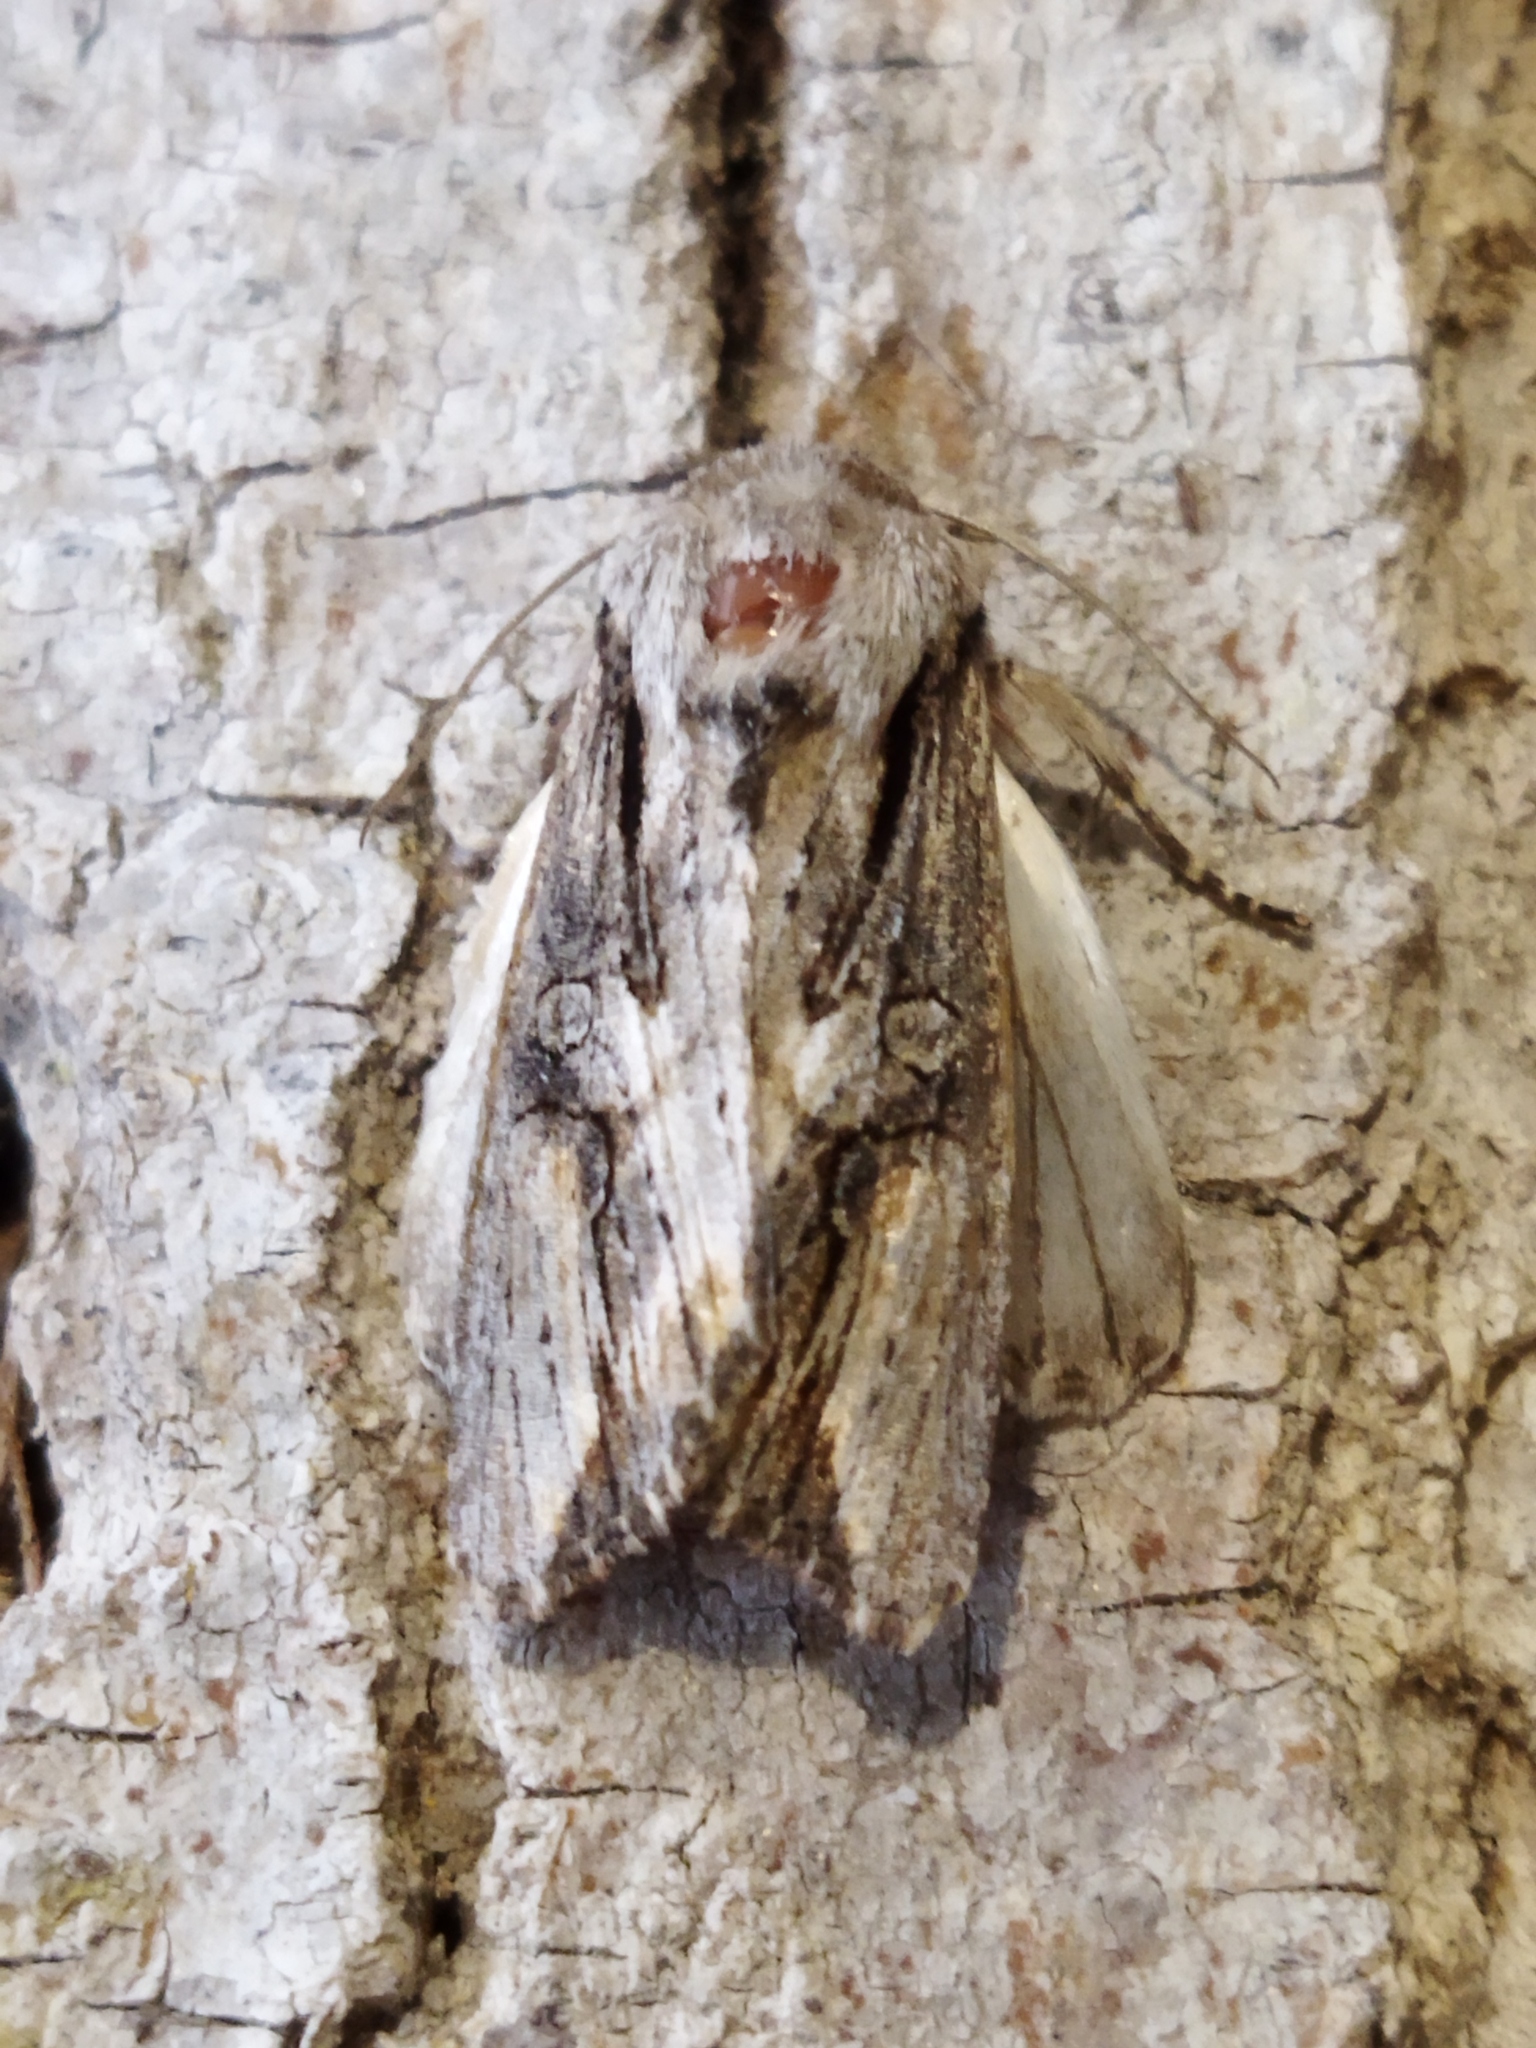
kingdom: Animalia
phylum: Arthropoda
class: Insecta
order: Lepidoptera
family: Noctuidae
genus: Egira
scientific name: Egira conspicillaris
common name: Silver cloud
